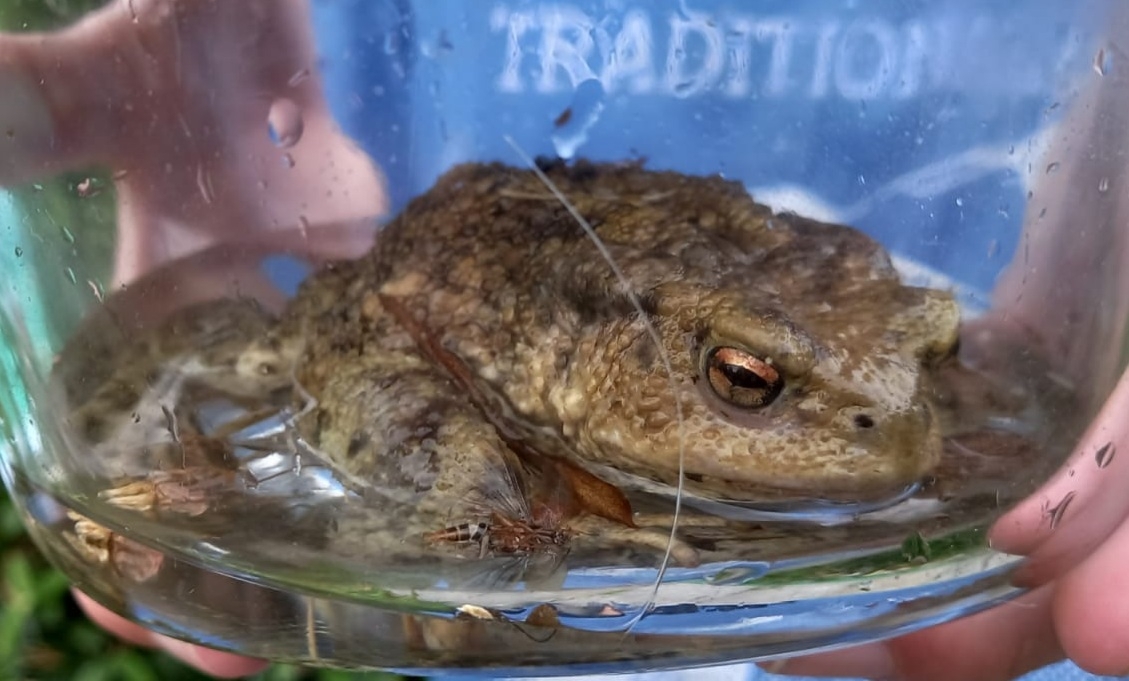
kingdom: Animalia
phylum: Chordata
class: Amphibia
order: Anura
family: Bufonidae
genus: Bufo
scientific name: Bufo bufo
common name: Common toad
